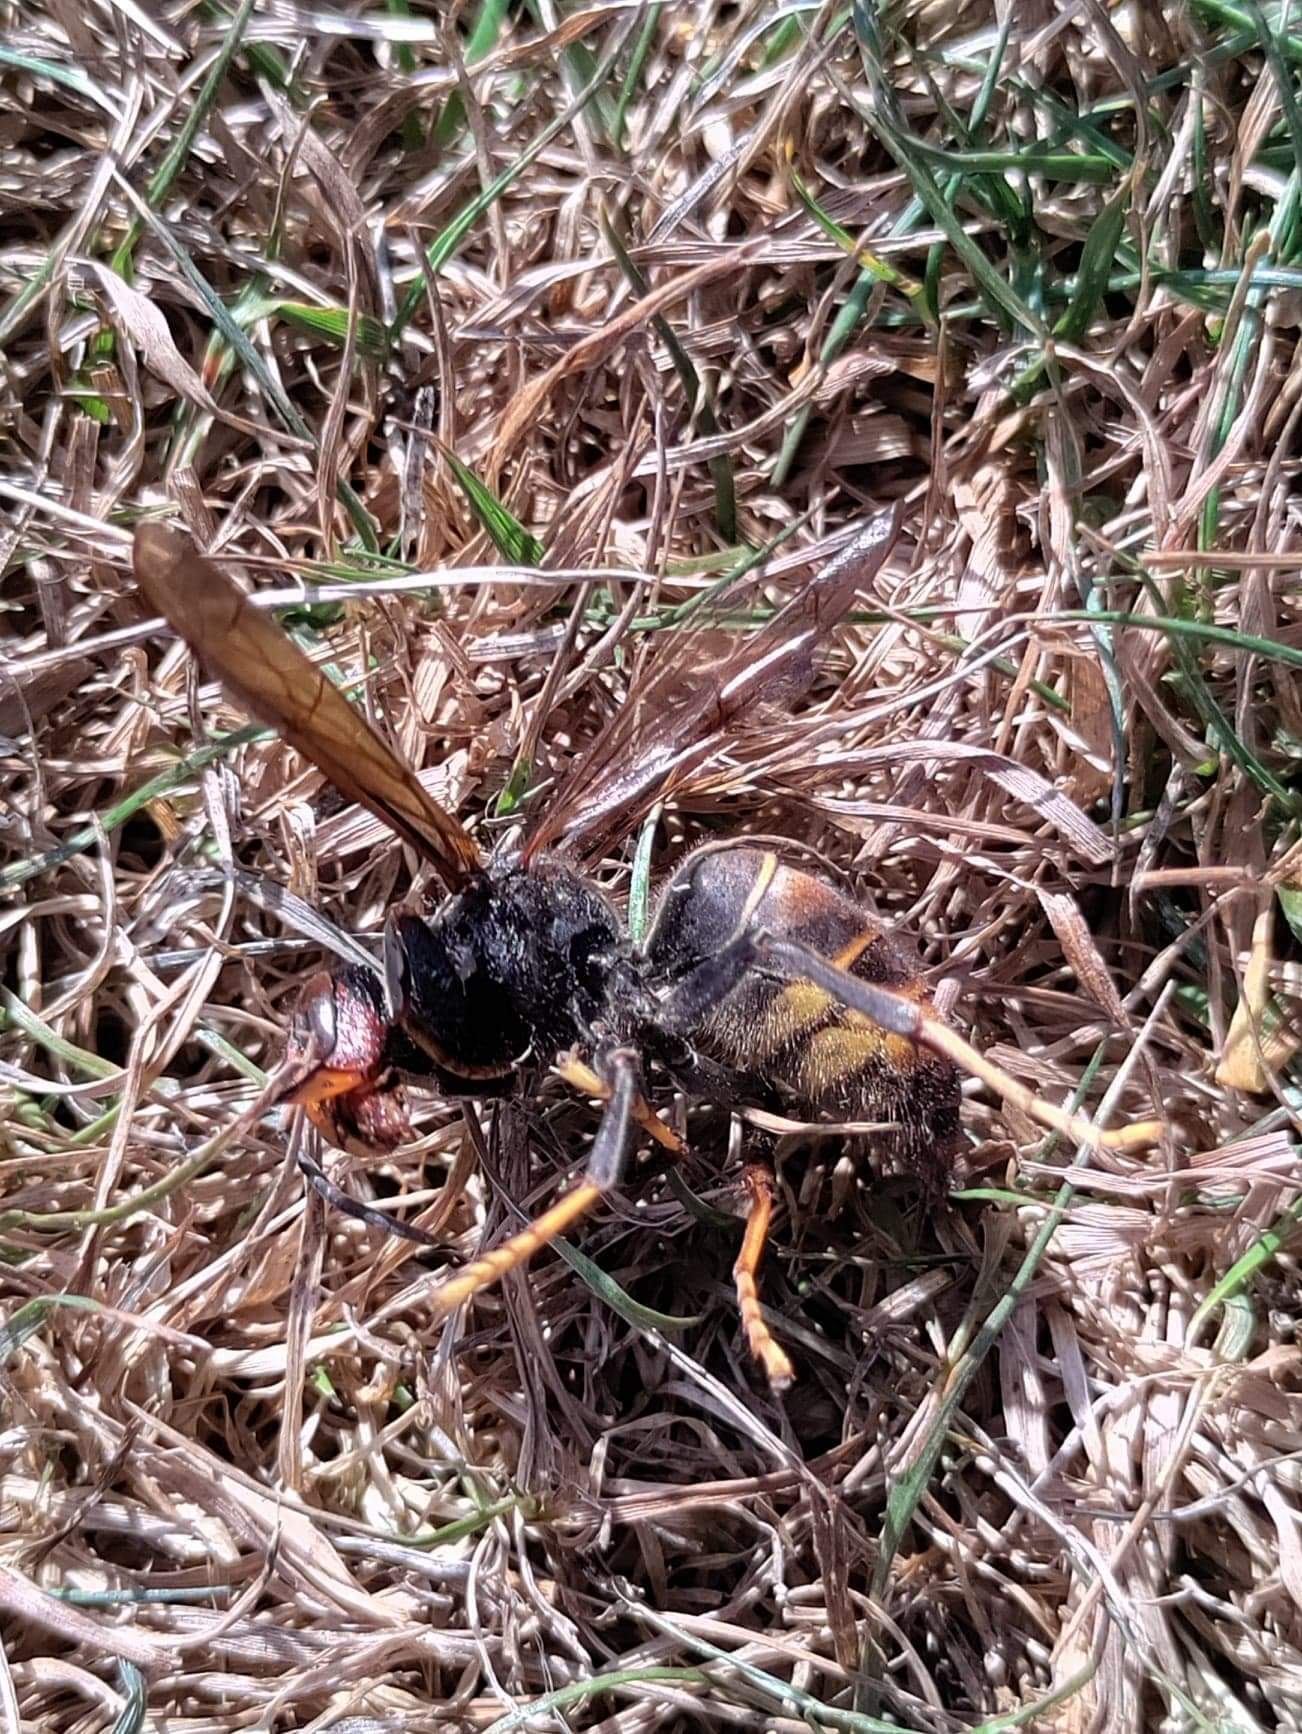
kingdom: Animalia
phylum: Arthropoda
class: Insecta
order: Hymenoptera
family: Vespidae
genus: Vespa
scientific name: Vespa velutina
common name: Asian hornet
